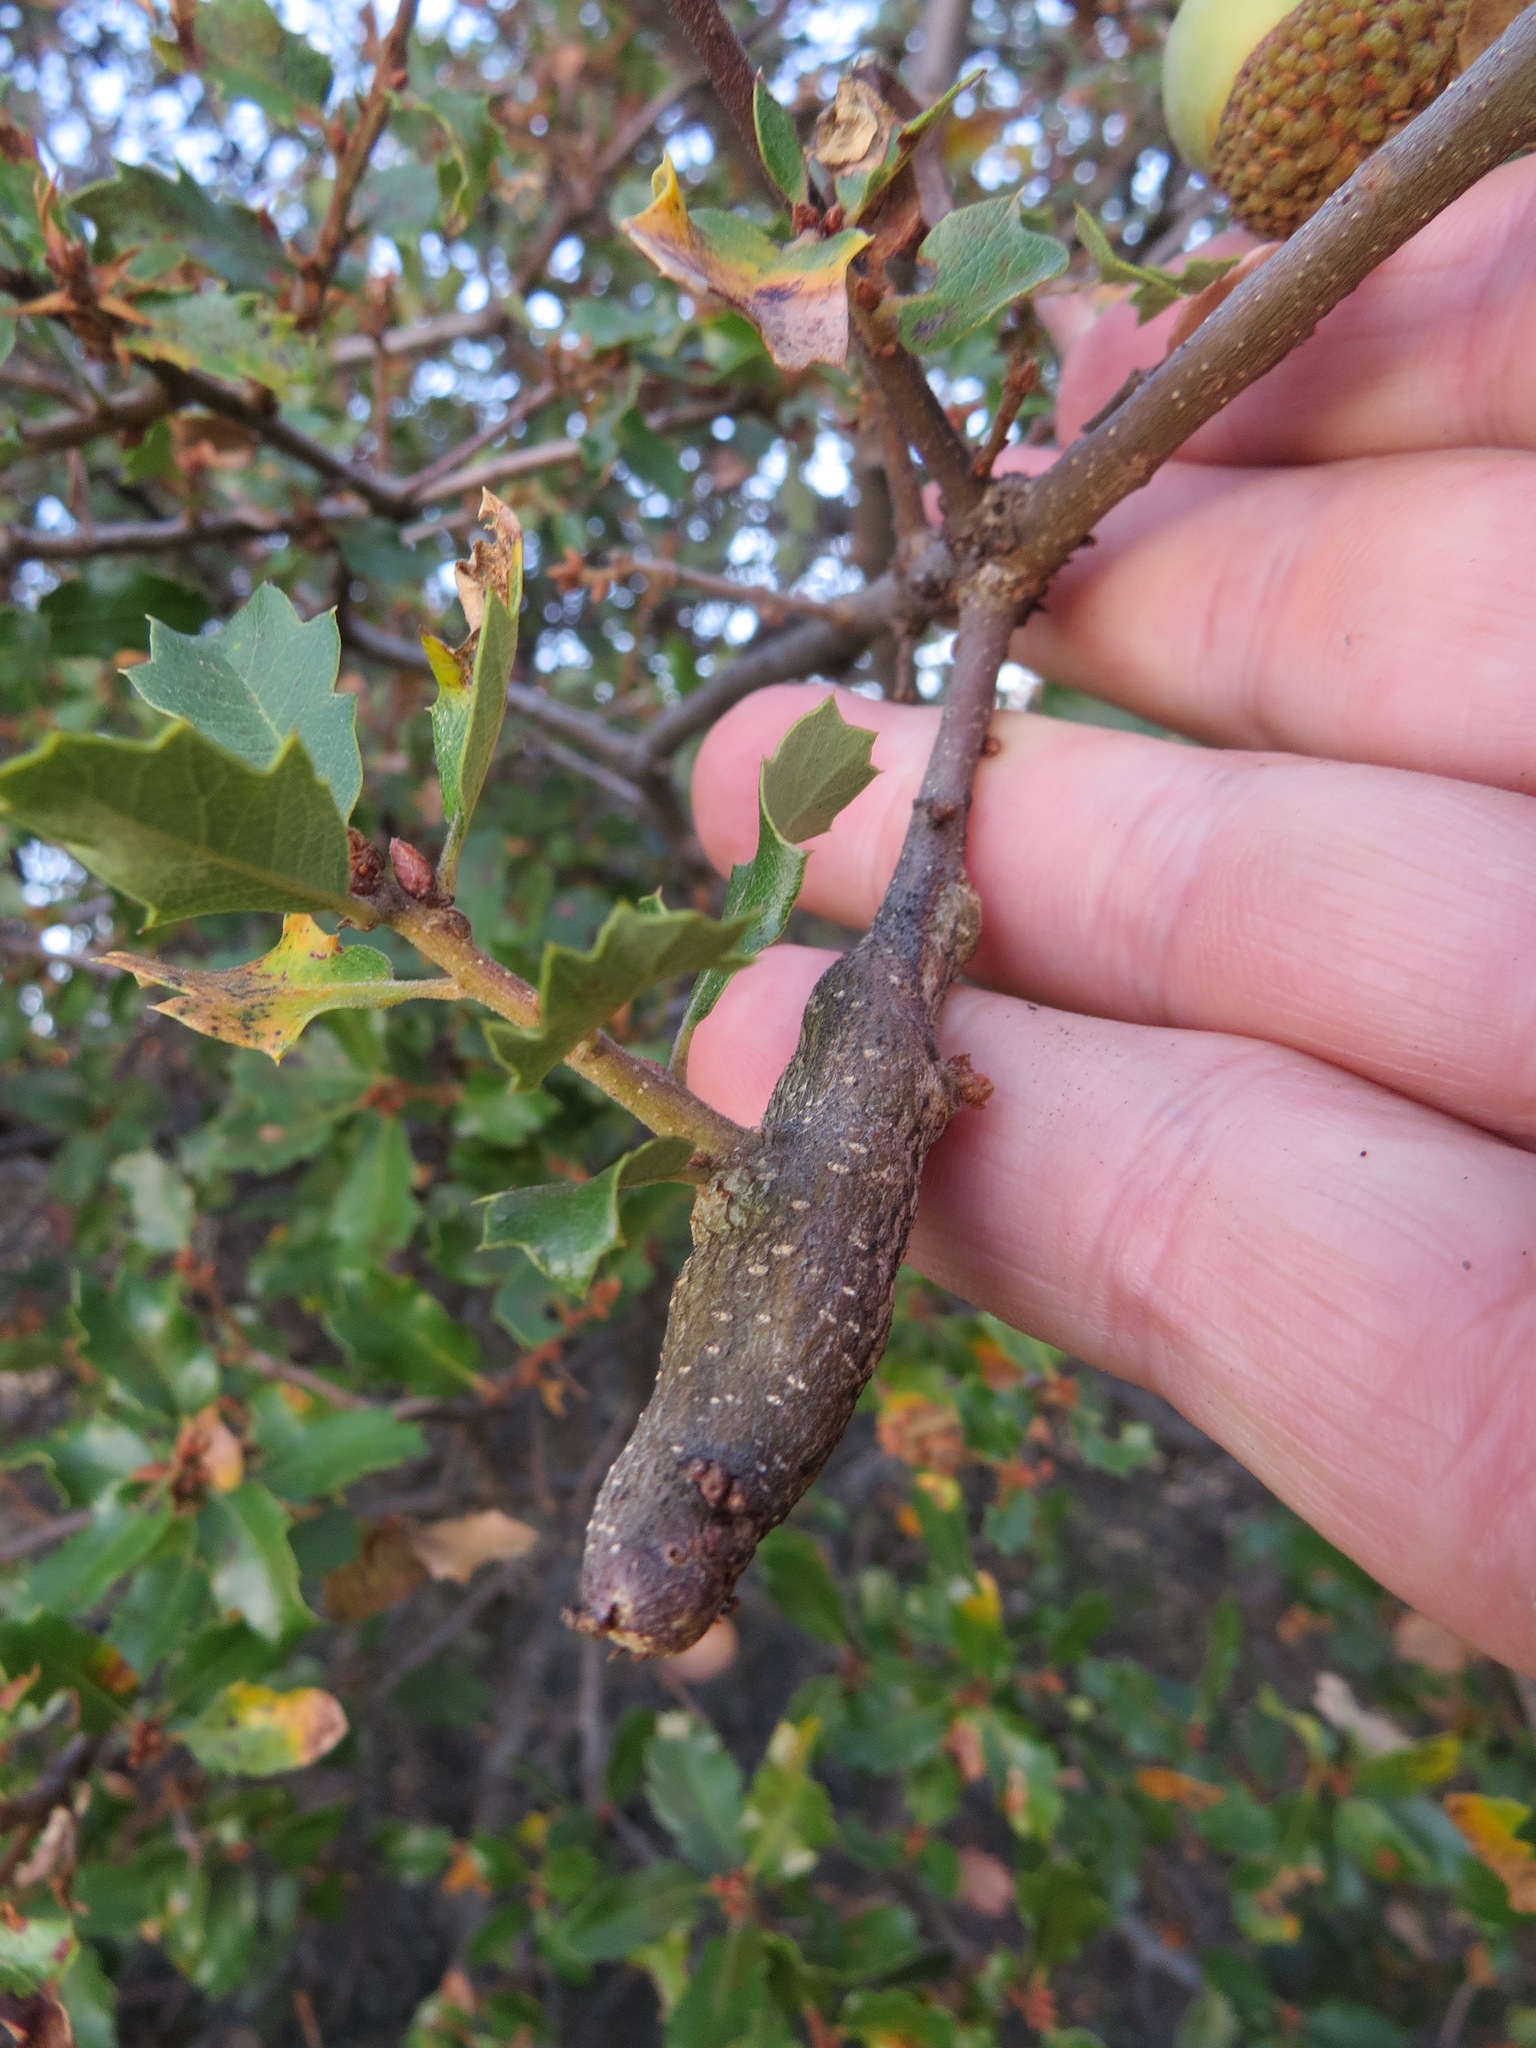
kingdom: Animalia
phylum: Arthropoda
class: Insecta
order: Hymenoptera
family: Cynipidae
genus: Andricus
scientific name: Andricus
